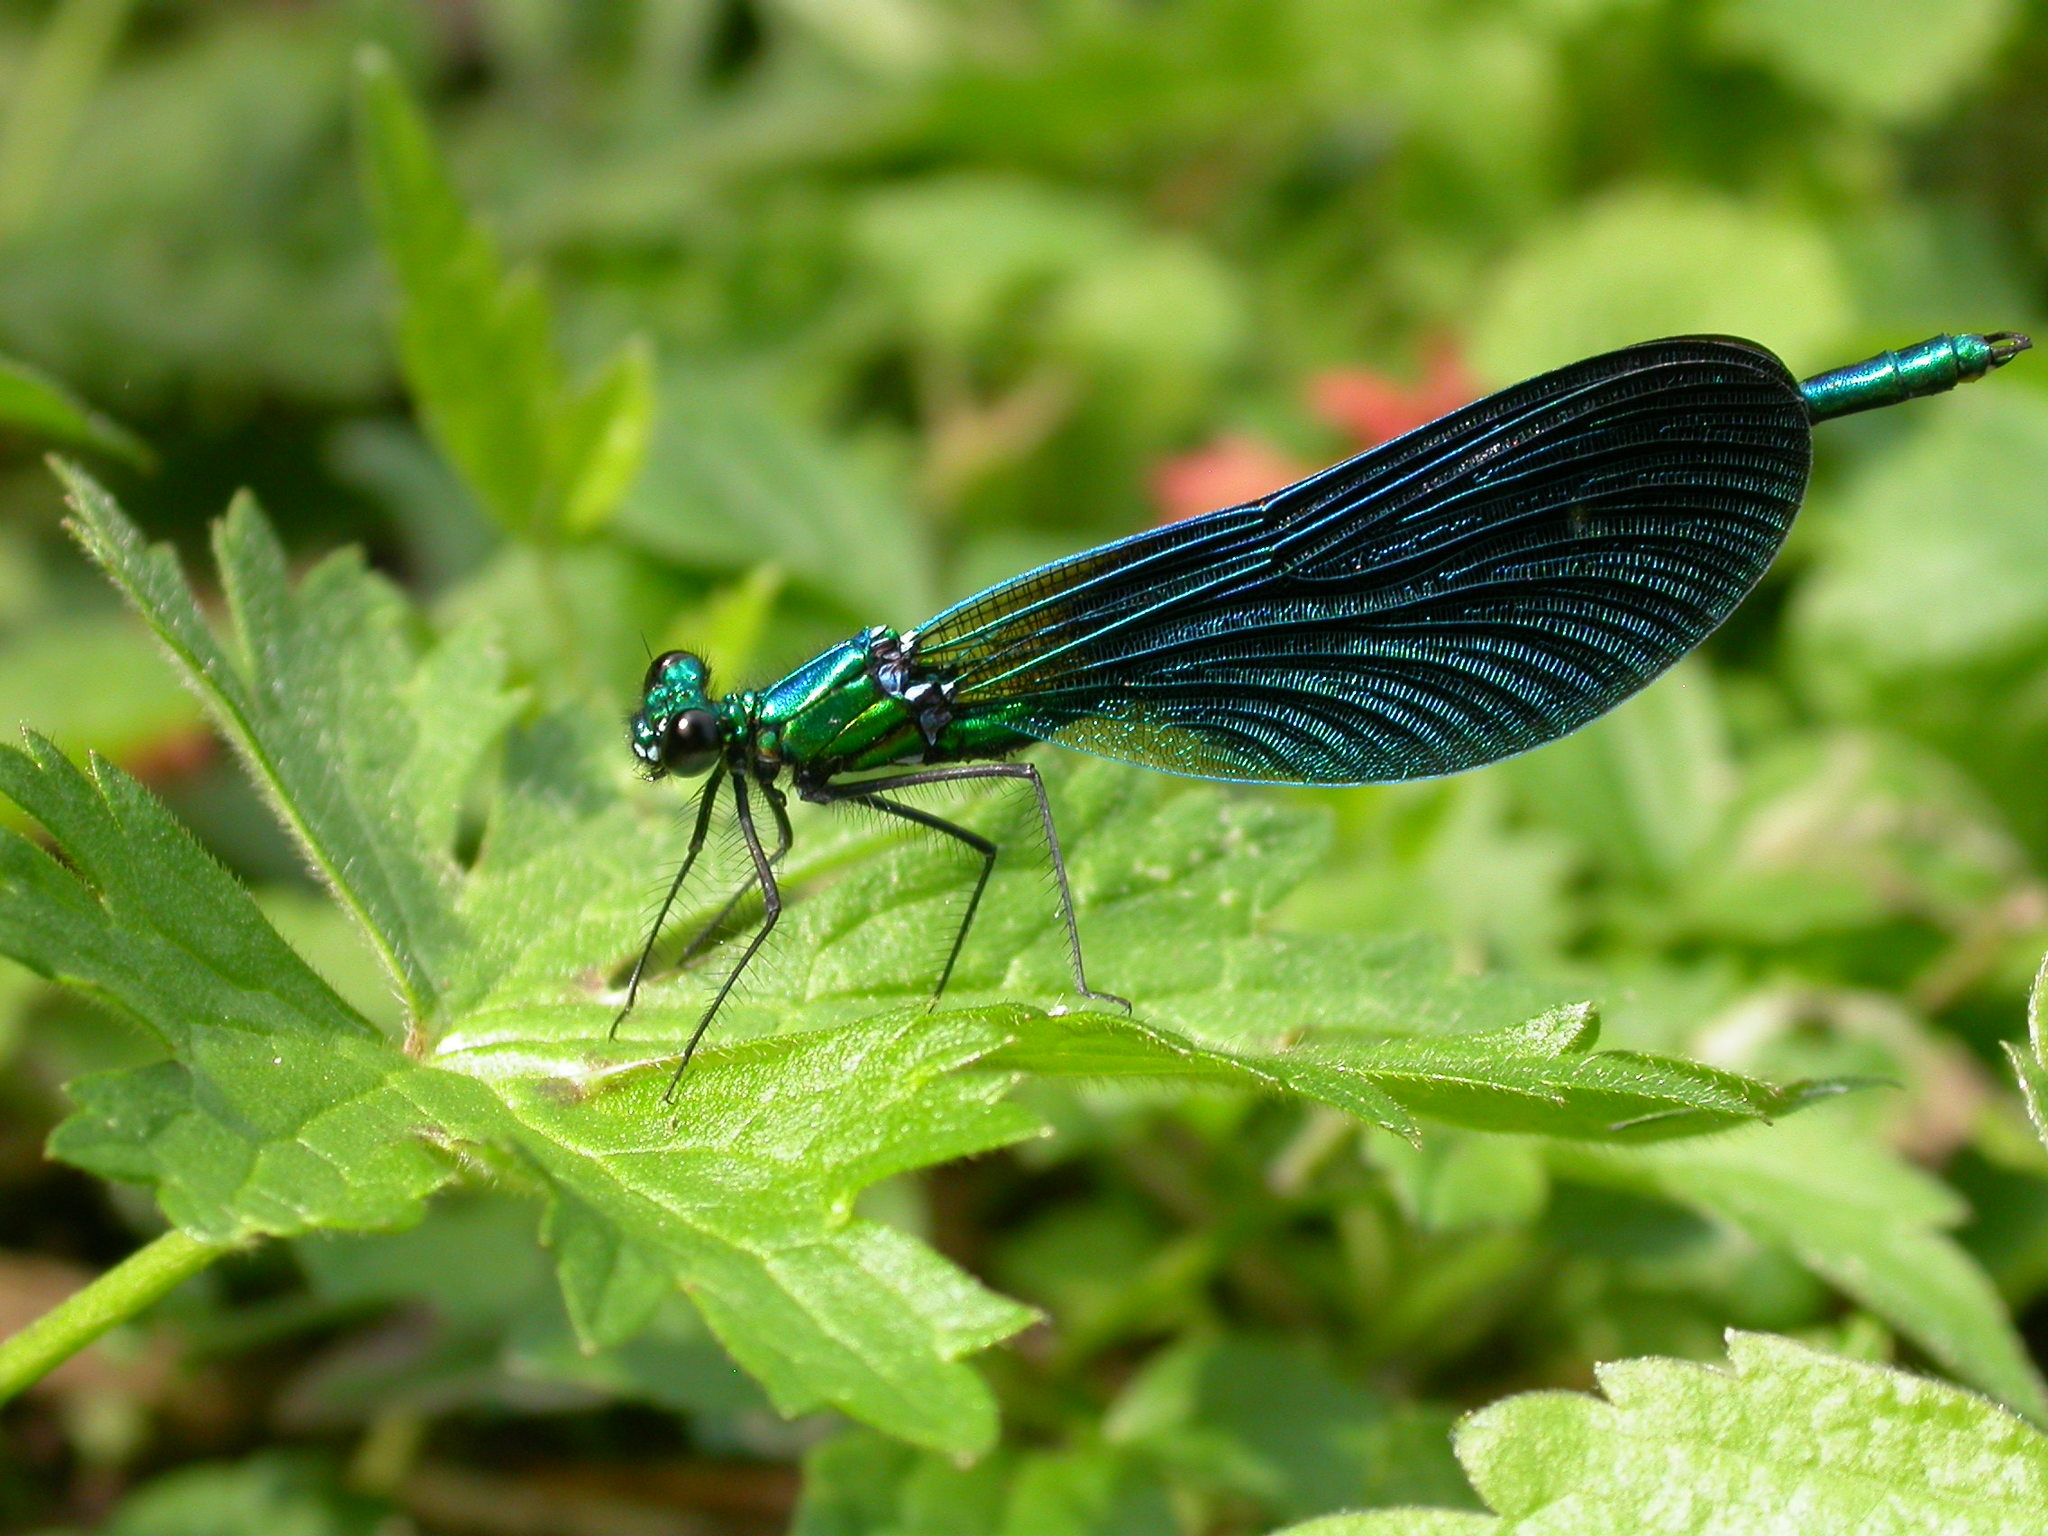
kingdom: Animalia
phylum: Arthropoda
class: Insecta
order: Odonata
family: Calopterygidae
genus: Calopteryx
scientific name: Calopteryx virgo
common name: Beautiful demoiselle
